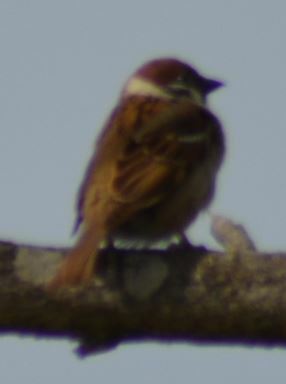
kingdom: Animalia
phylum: Chordata
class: Aves
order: Passeriformes
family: Passeridae
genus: Passer
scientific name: Passer montanus
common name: Eurasian tree sparrow
